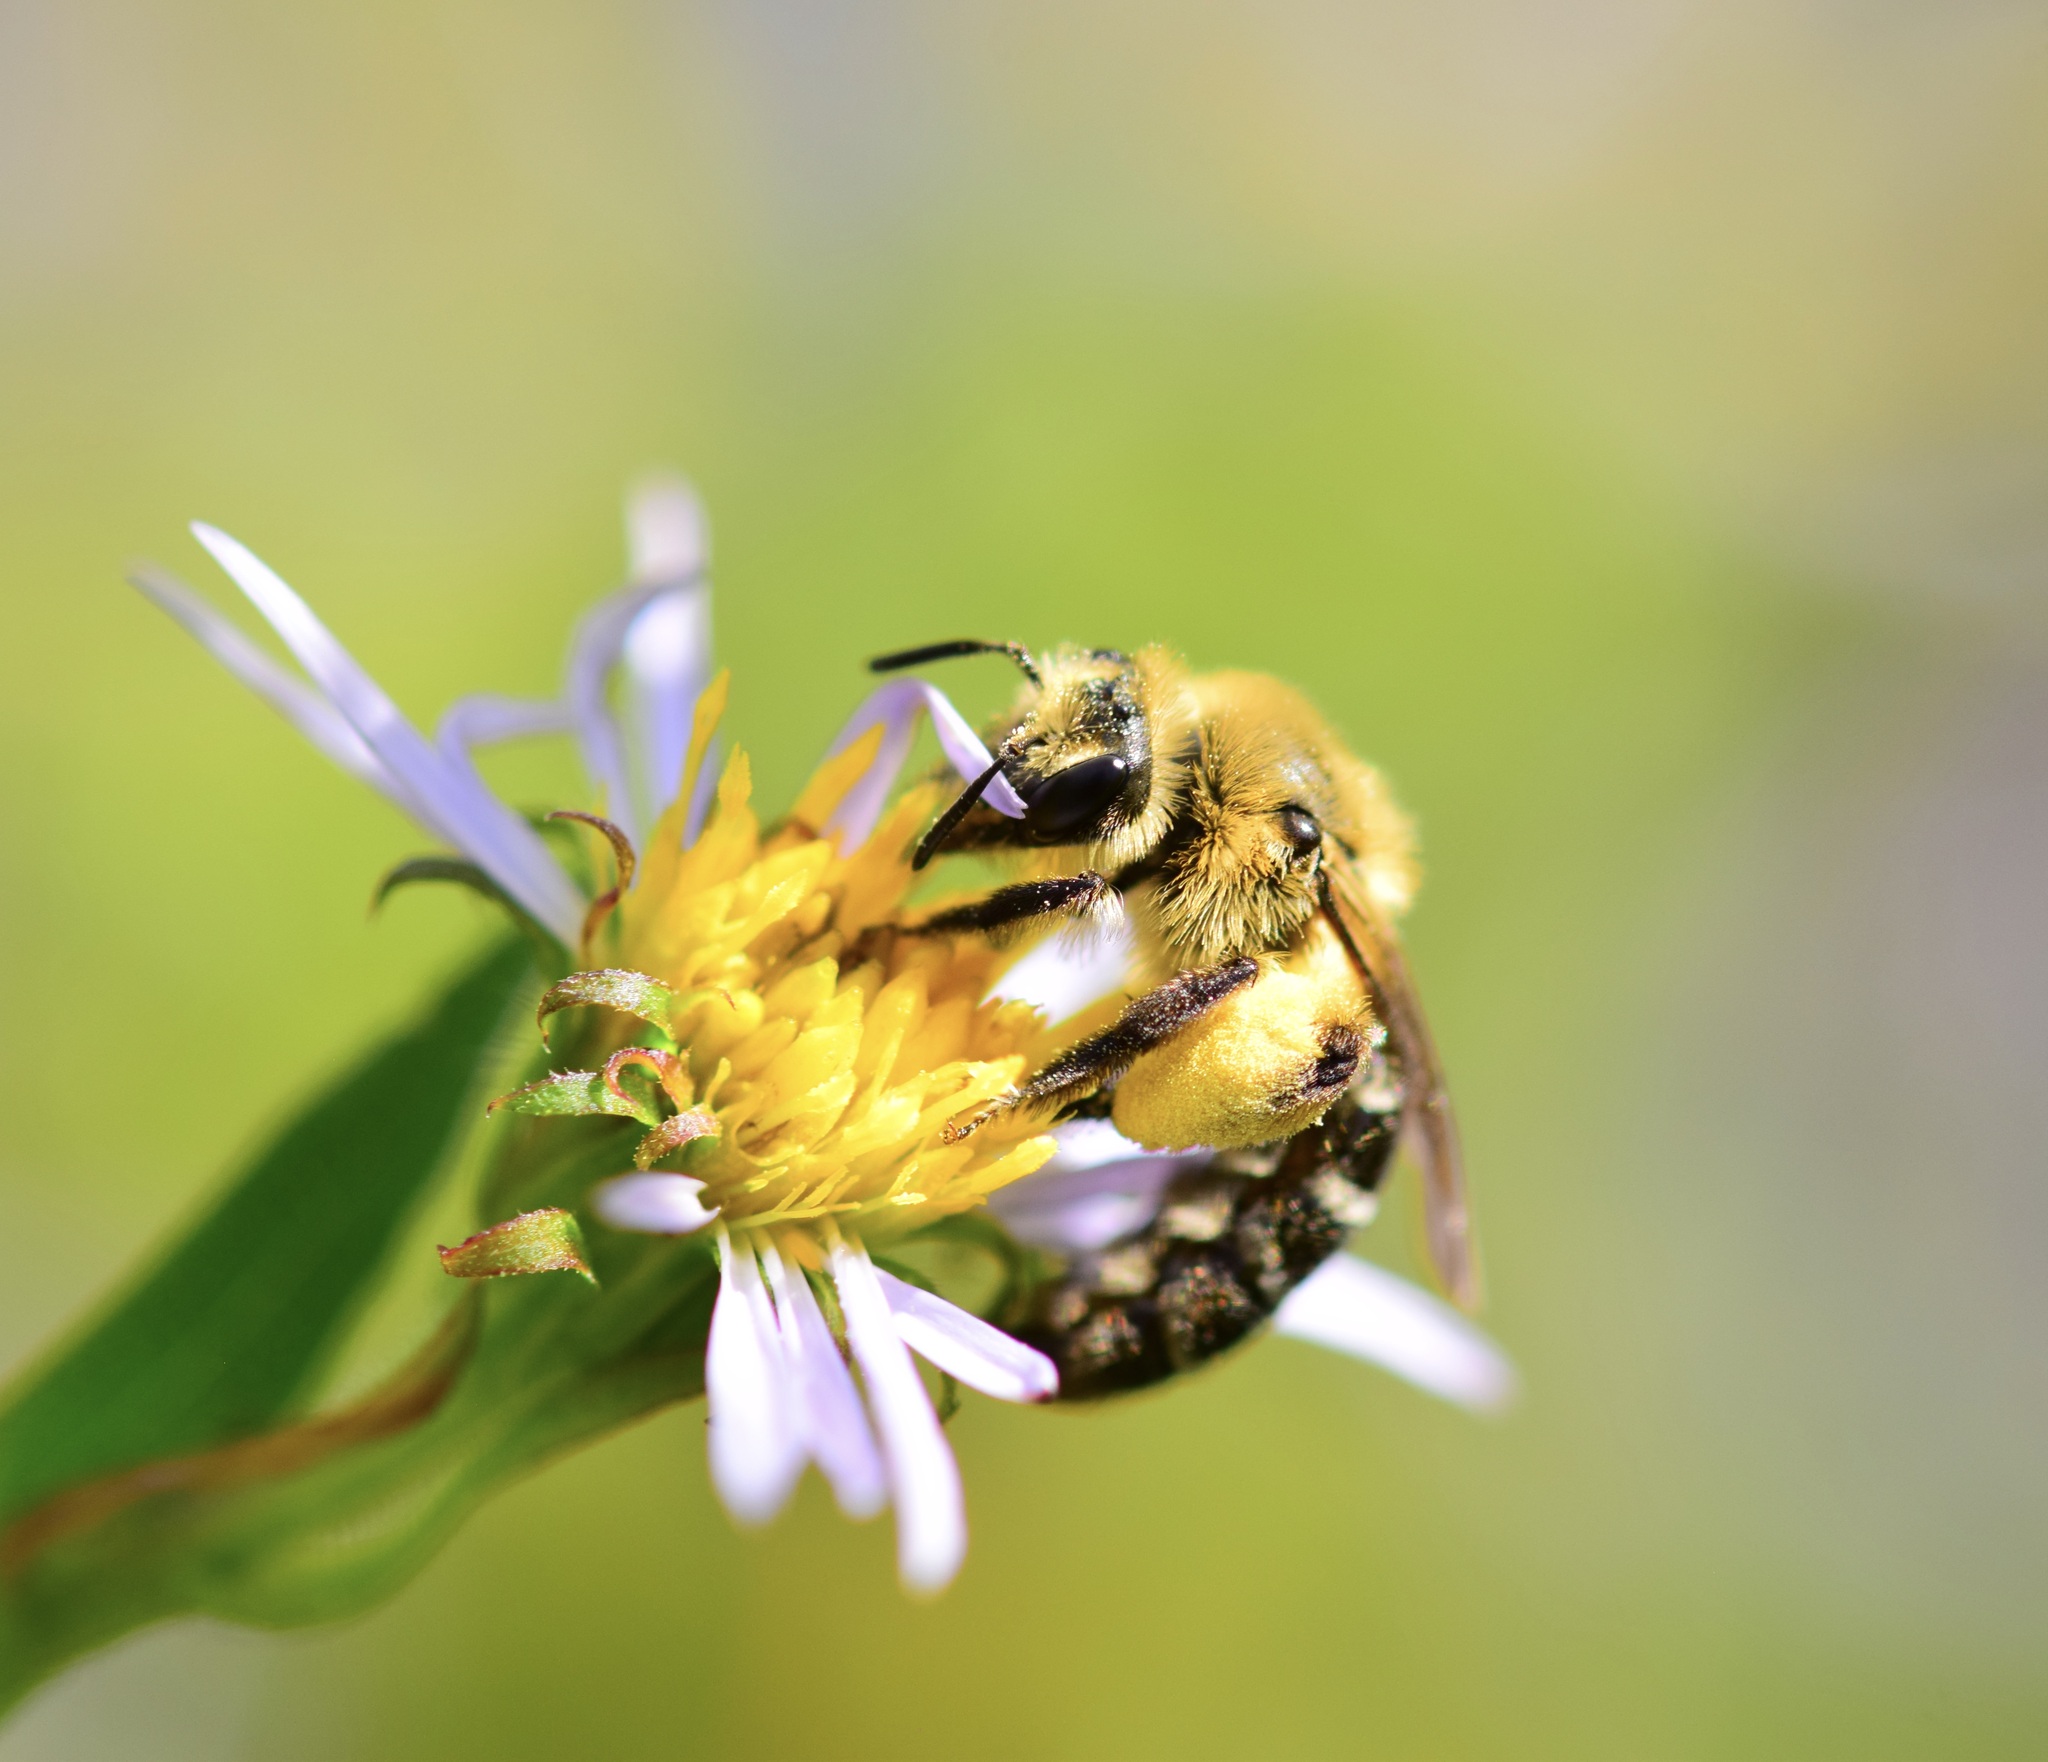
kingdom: Animalia
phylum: Arthropoda
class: Insecta
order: Hymenoptera
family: Andrenidae
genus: Andrena
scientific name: Andrena asteris
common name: Aster mining bee
